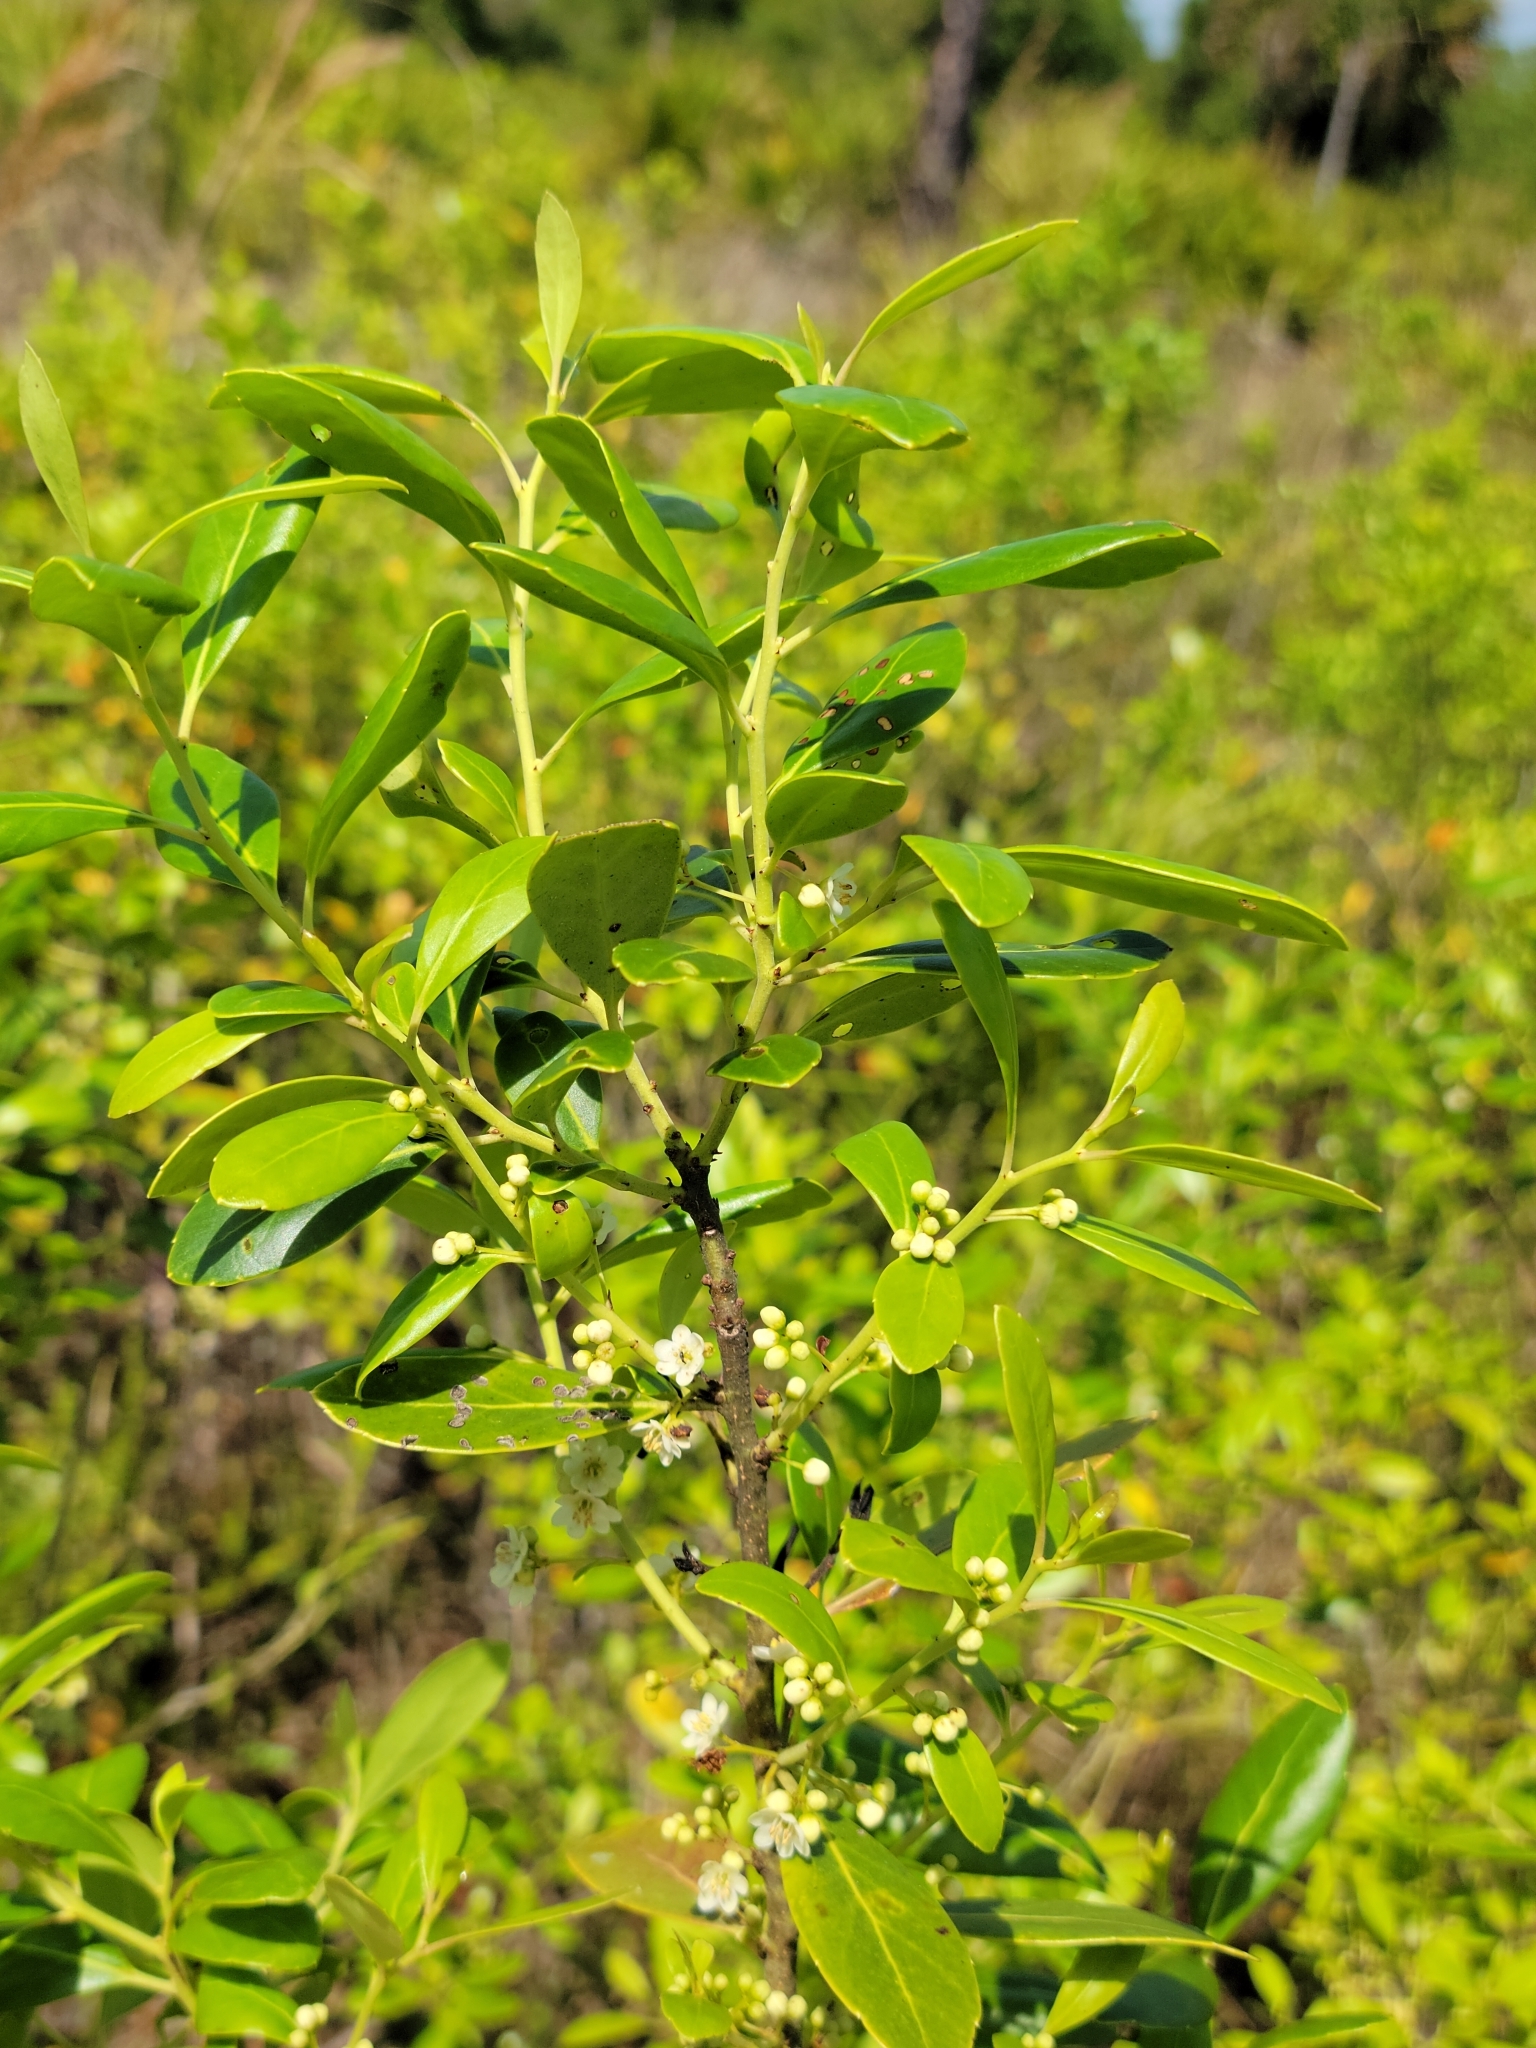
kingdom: Plantae
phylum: Tracheophyta
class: Magnoliopsida
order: Aquifoliales
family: Aquifoliaceae
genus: Ilex
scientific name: Ilex glabra
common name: Bitter gallberry
